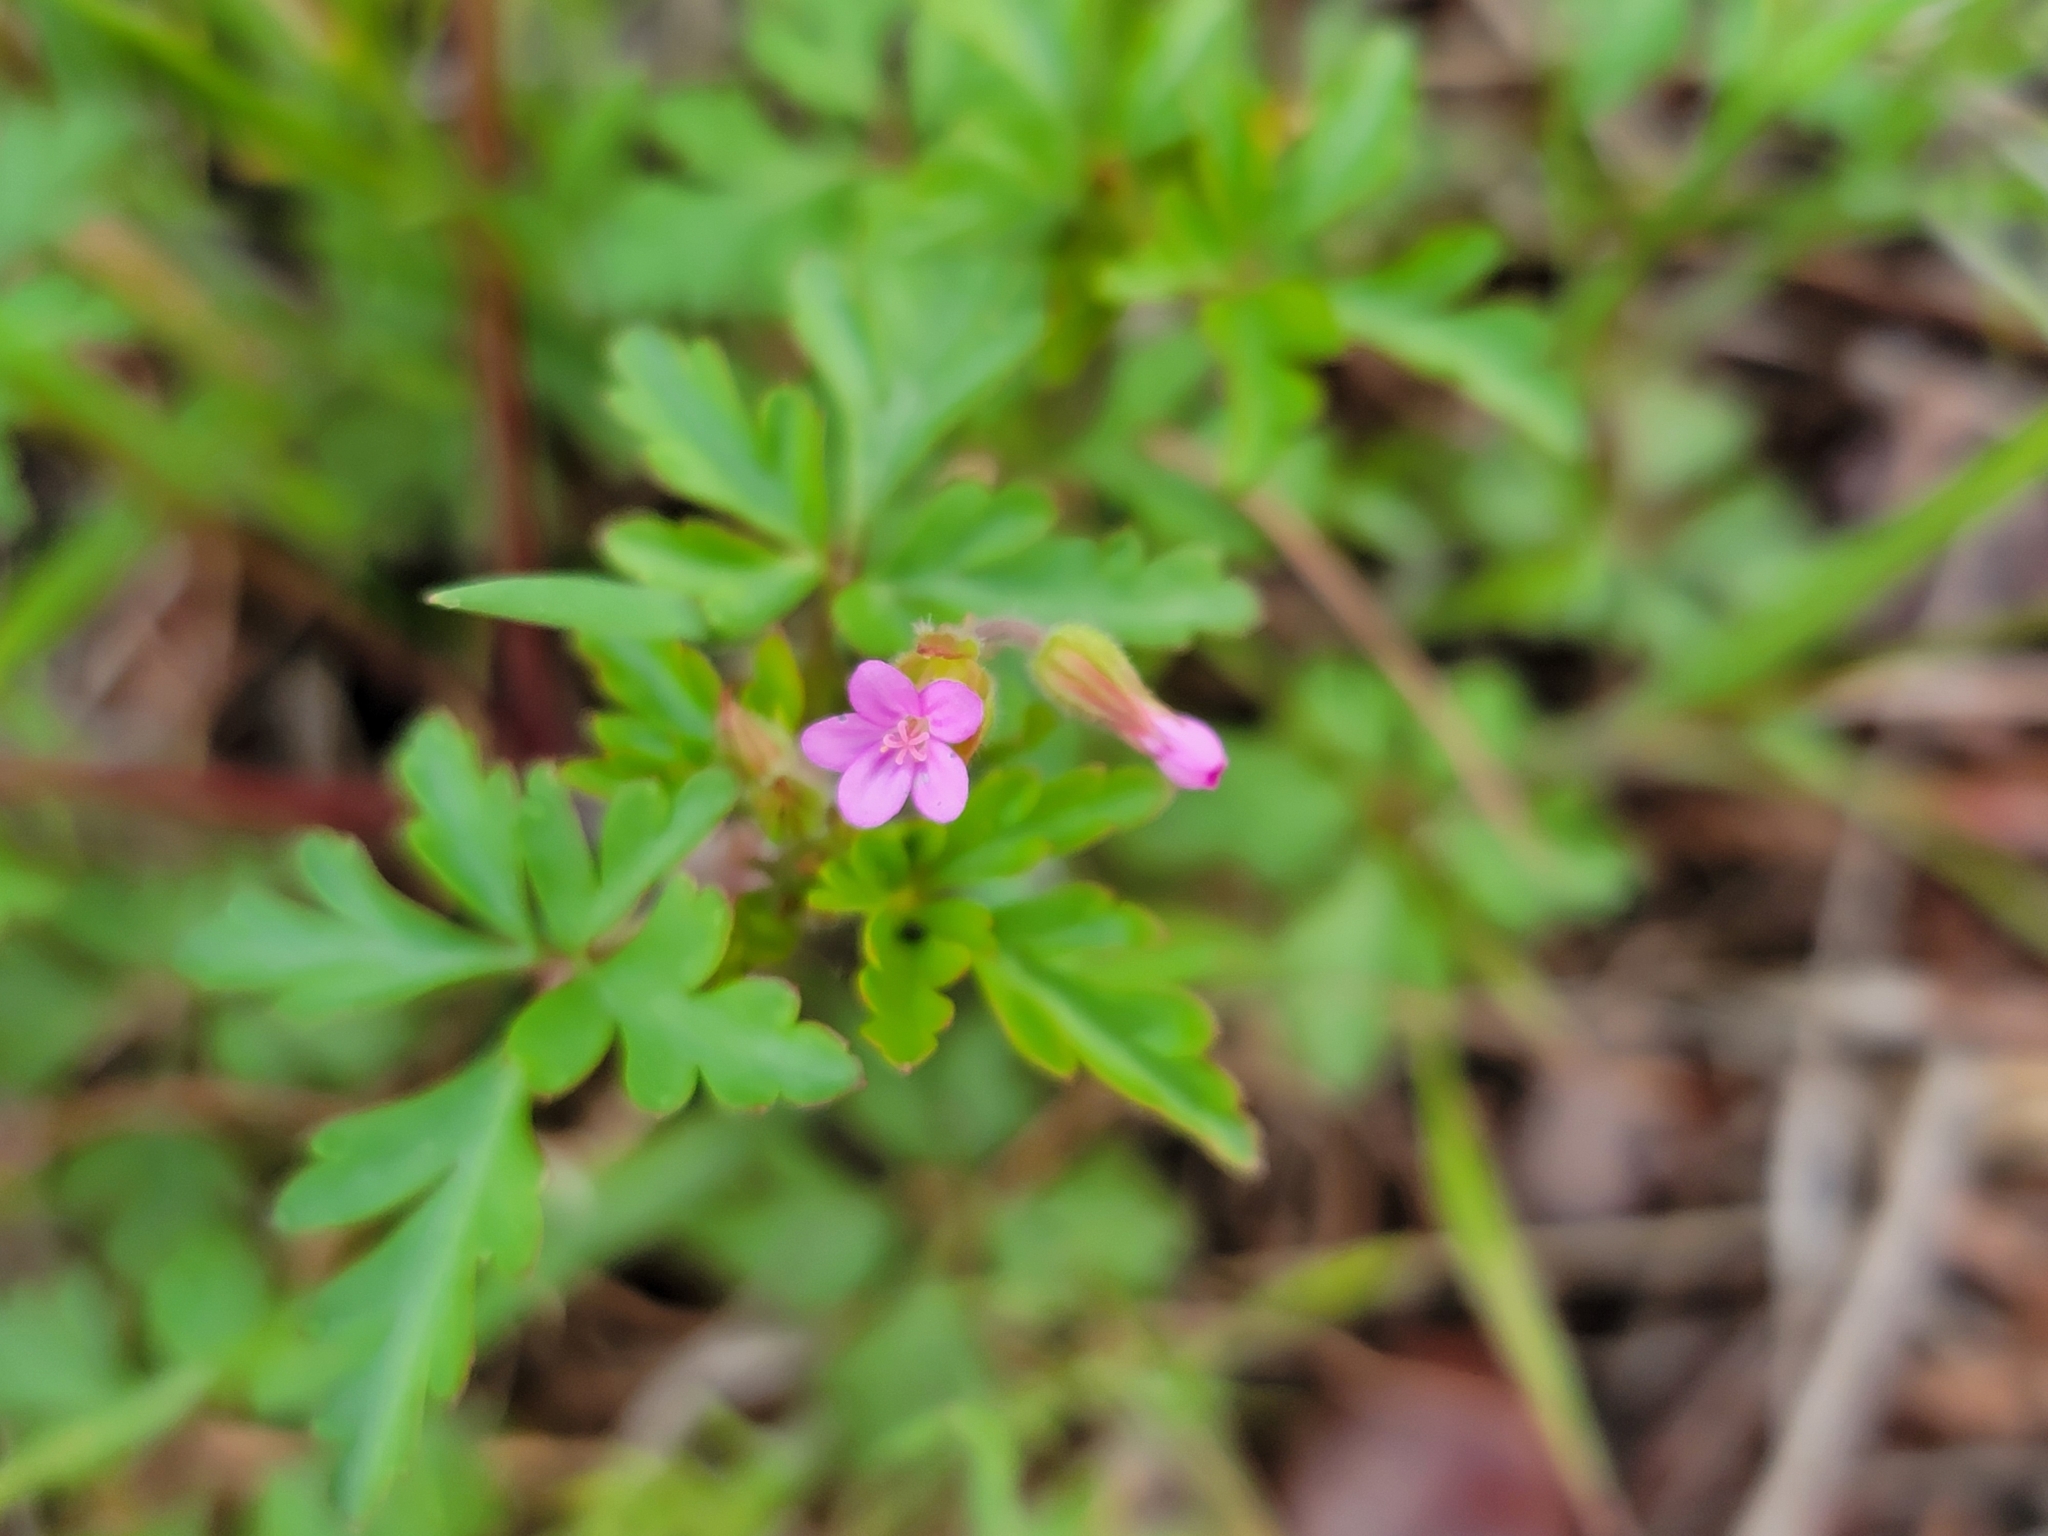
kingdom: Plantae
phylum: Tracheophyta
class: Magnoliopsida
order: Geraniales
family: Geraniaceae
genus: Geranium
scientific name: Geranium purpureum
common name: Little-robin
